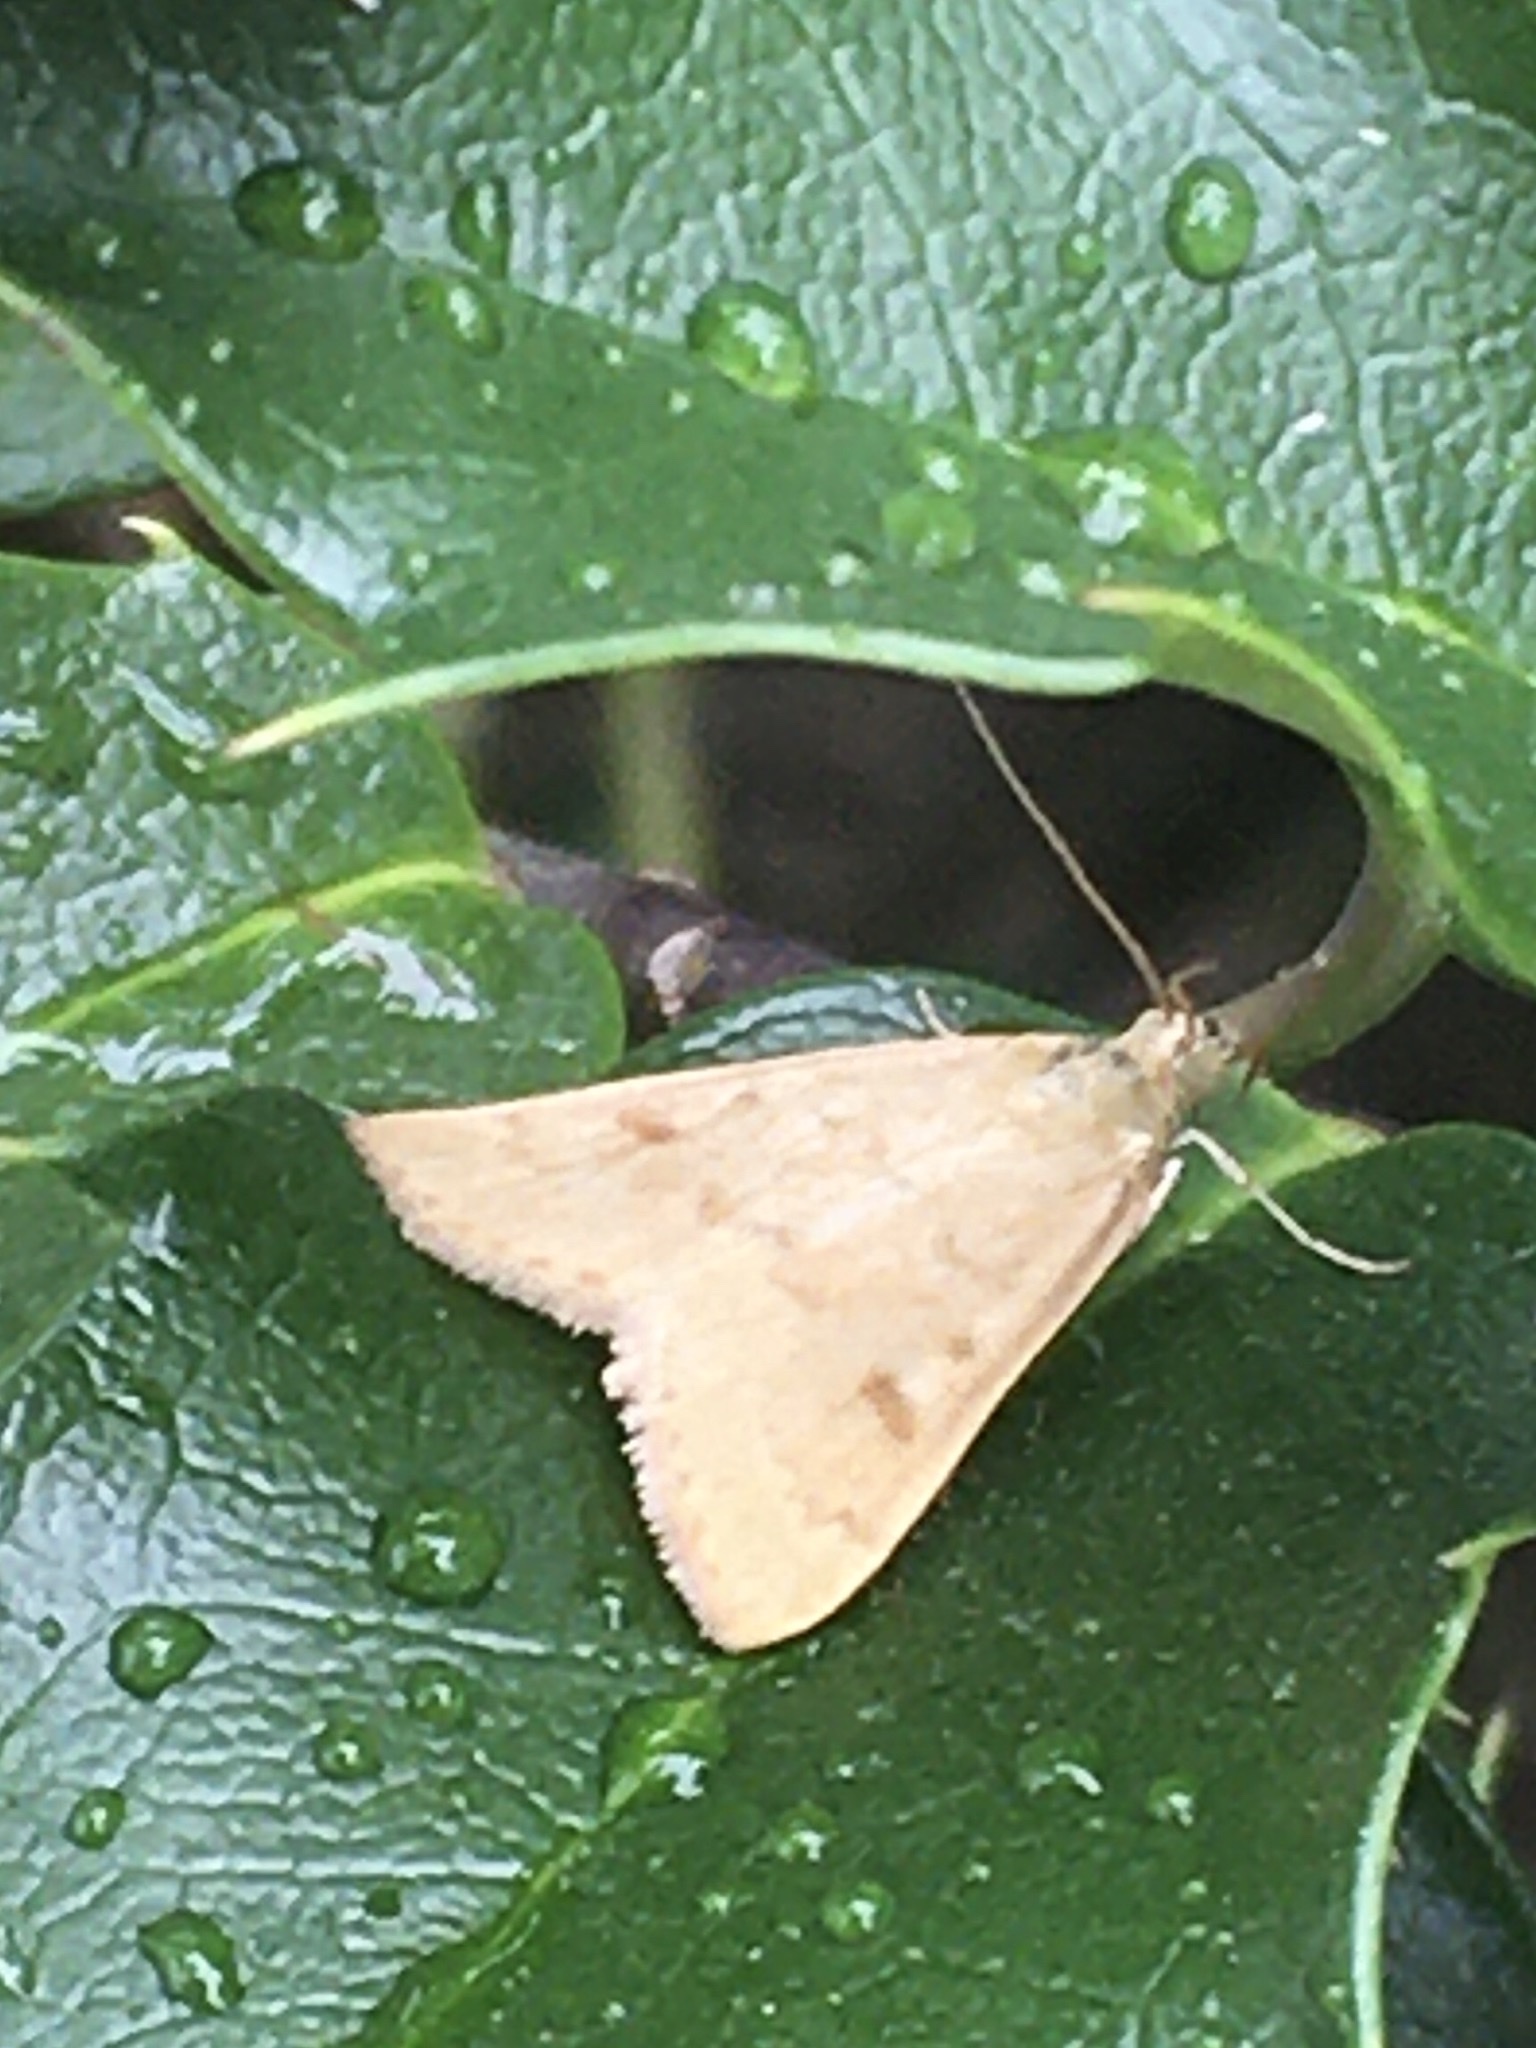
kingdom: Animalia
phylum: Arthropoda
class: Insecta
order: Lepidoptera
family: Crambidae
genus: Achyra
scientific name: Achyra rantalis
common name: Garden webworm
